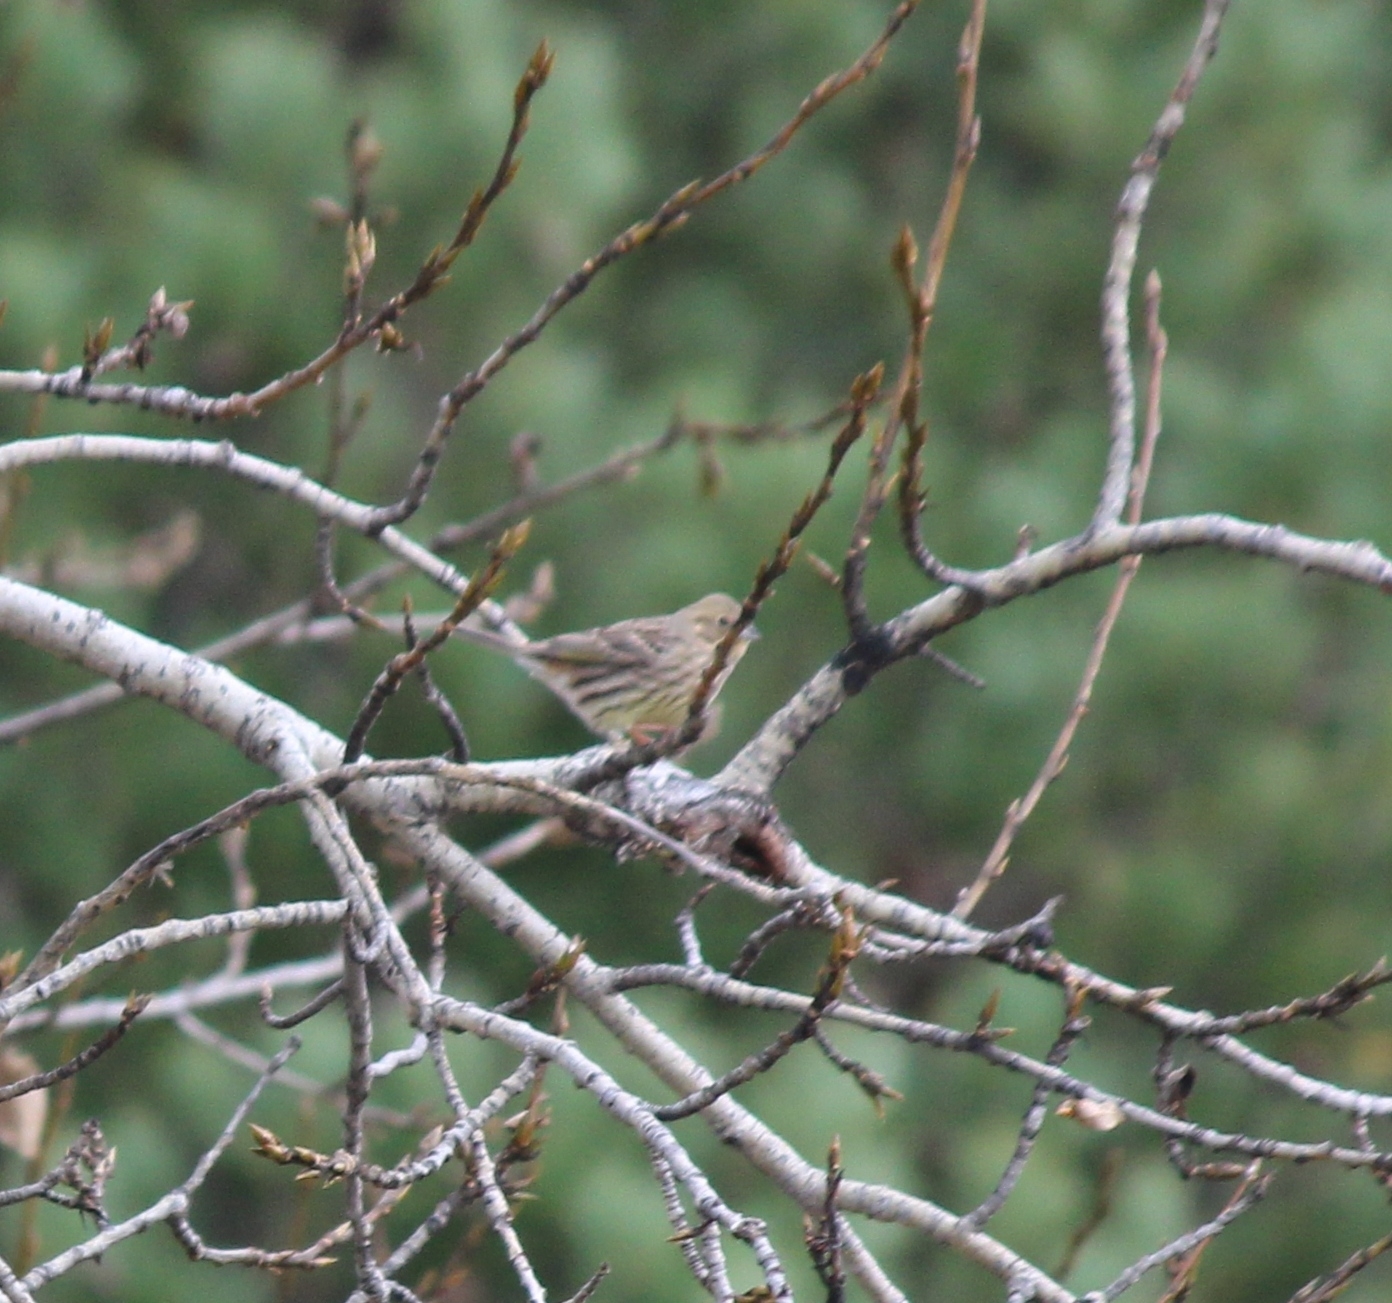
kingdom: Animalia
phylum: Chordata
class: Aves
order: Passeriformes
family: Emberizidae
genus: Emberiza
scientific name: Emberiza citrinella
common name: Yellowhammer
